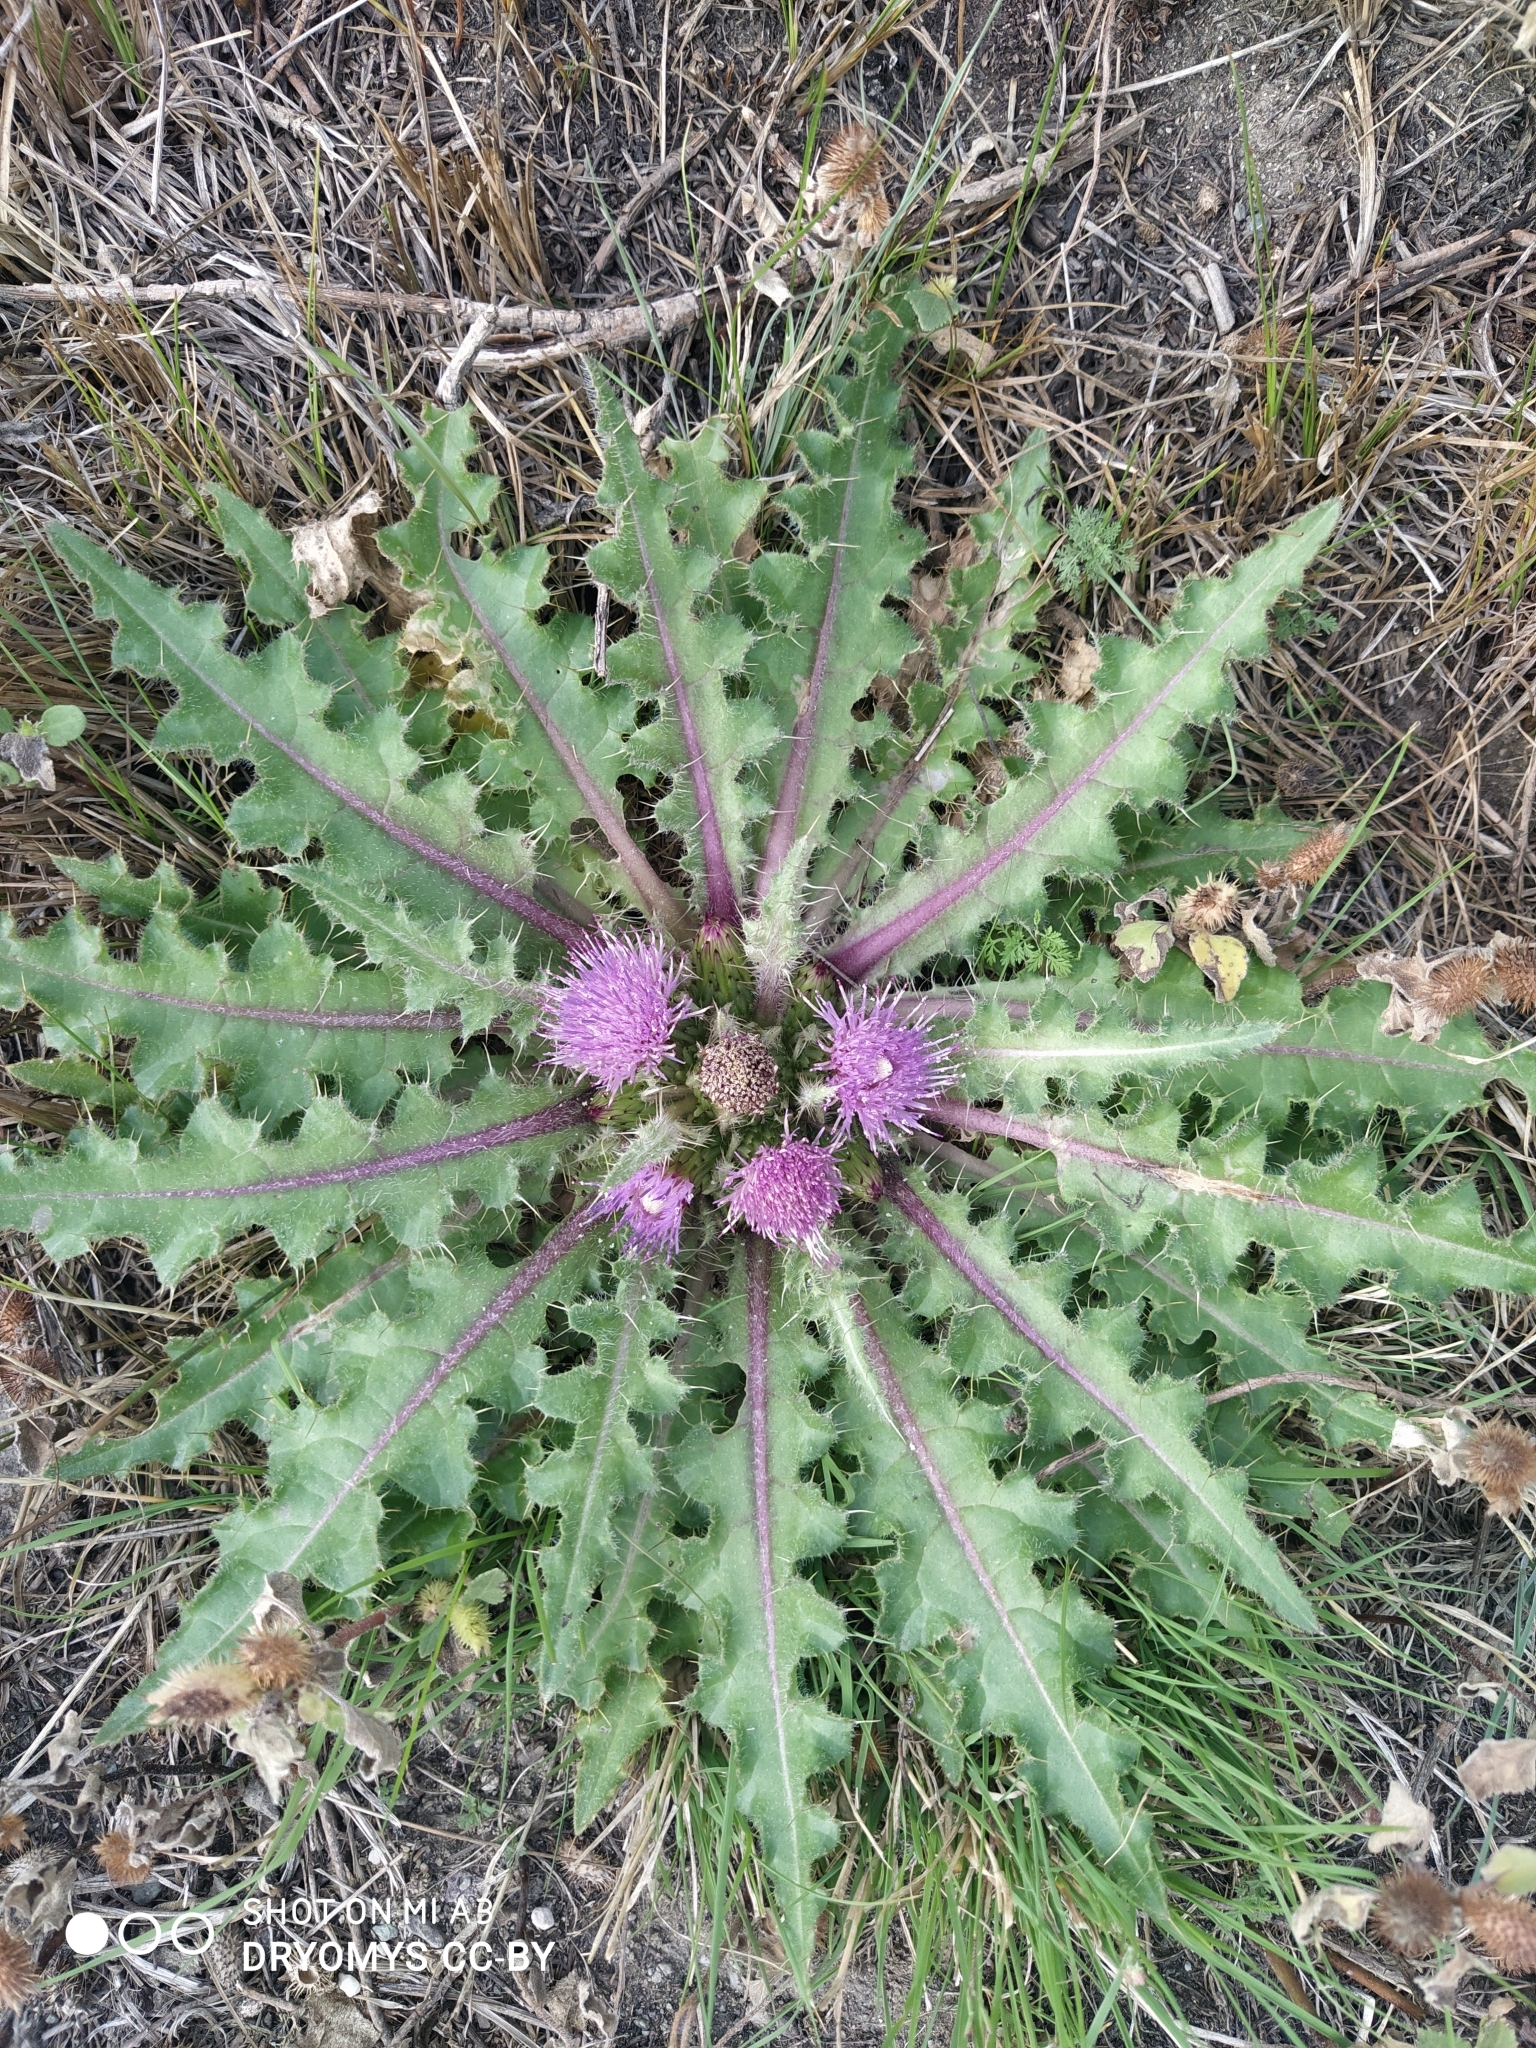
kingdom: Plantae
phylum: Tracheophyta
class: Magnoliopsida
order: Asterales
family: Asteraceae
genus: Cirsium
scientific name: Cirsium esculentum
